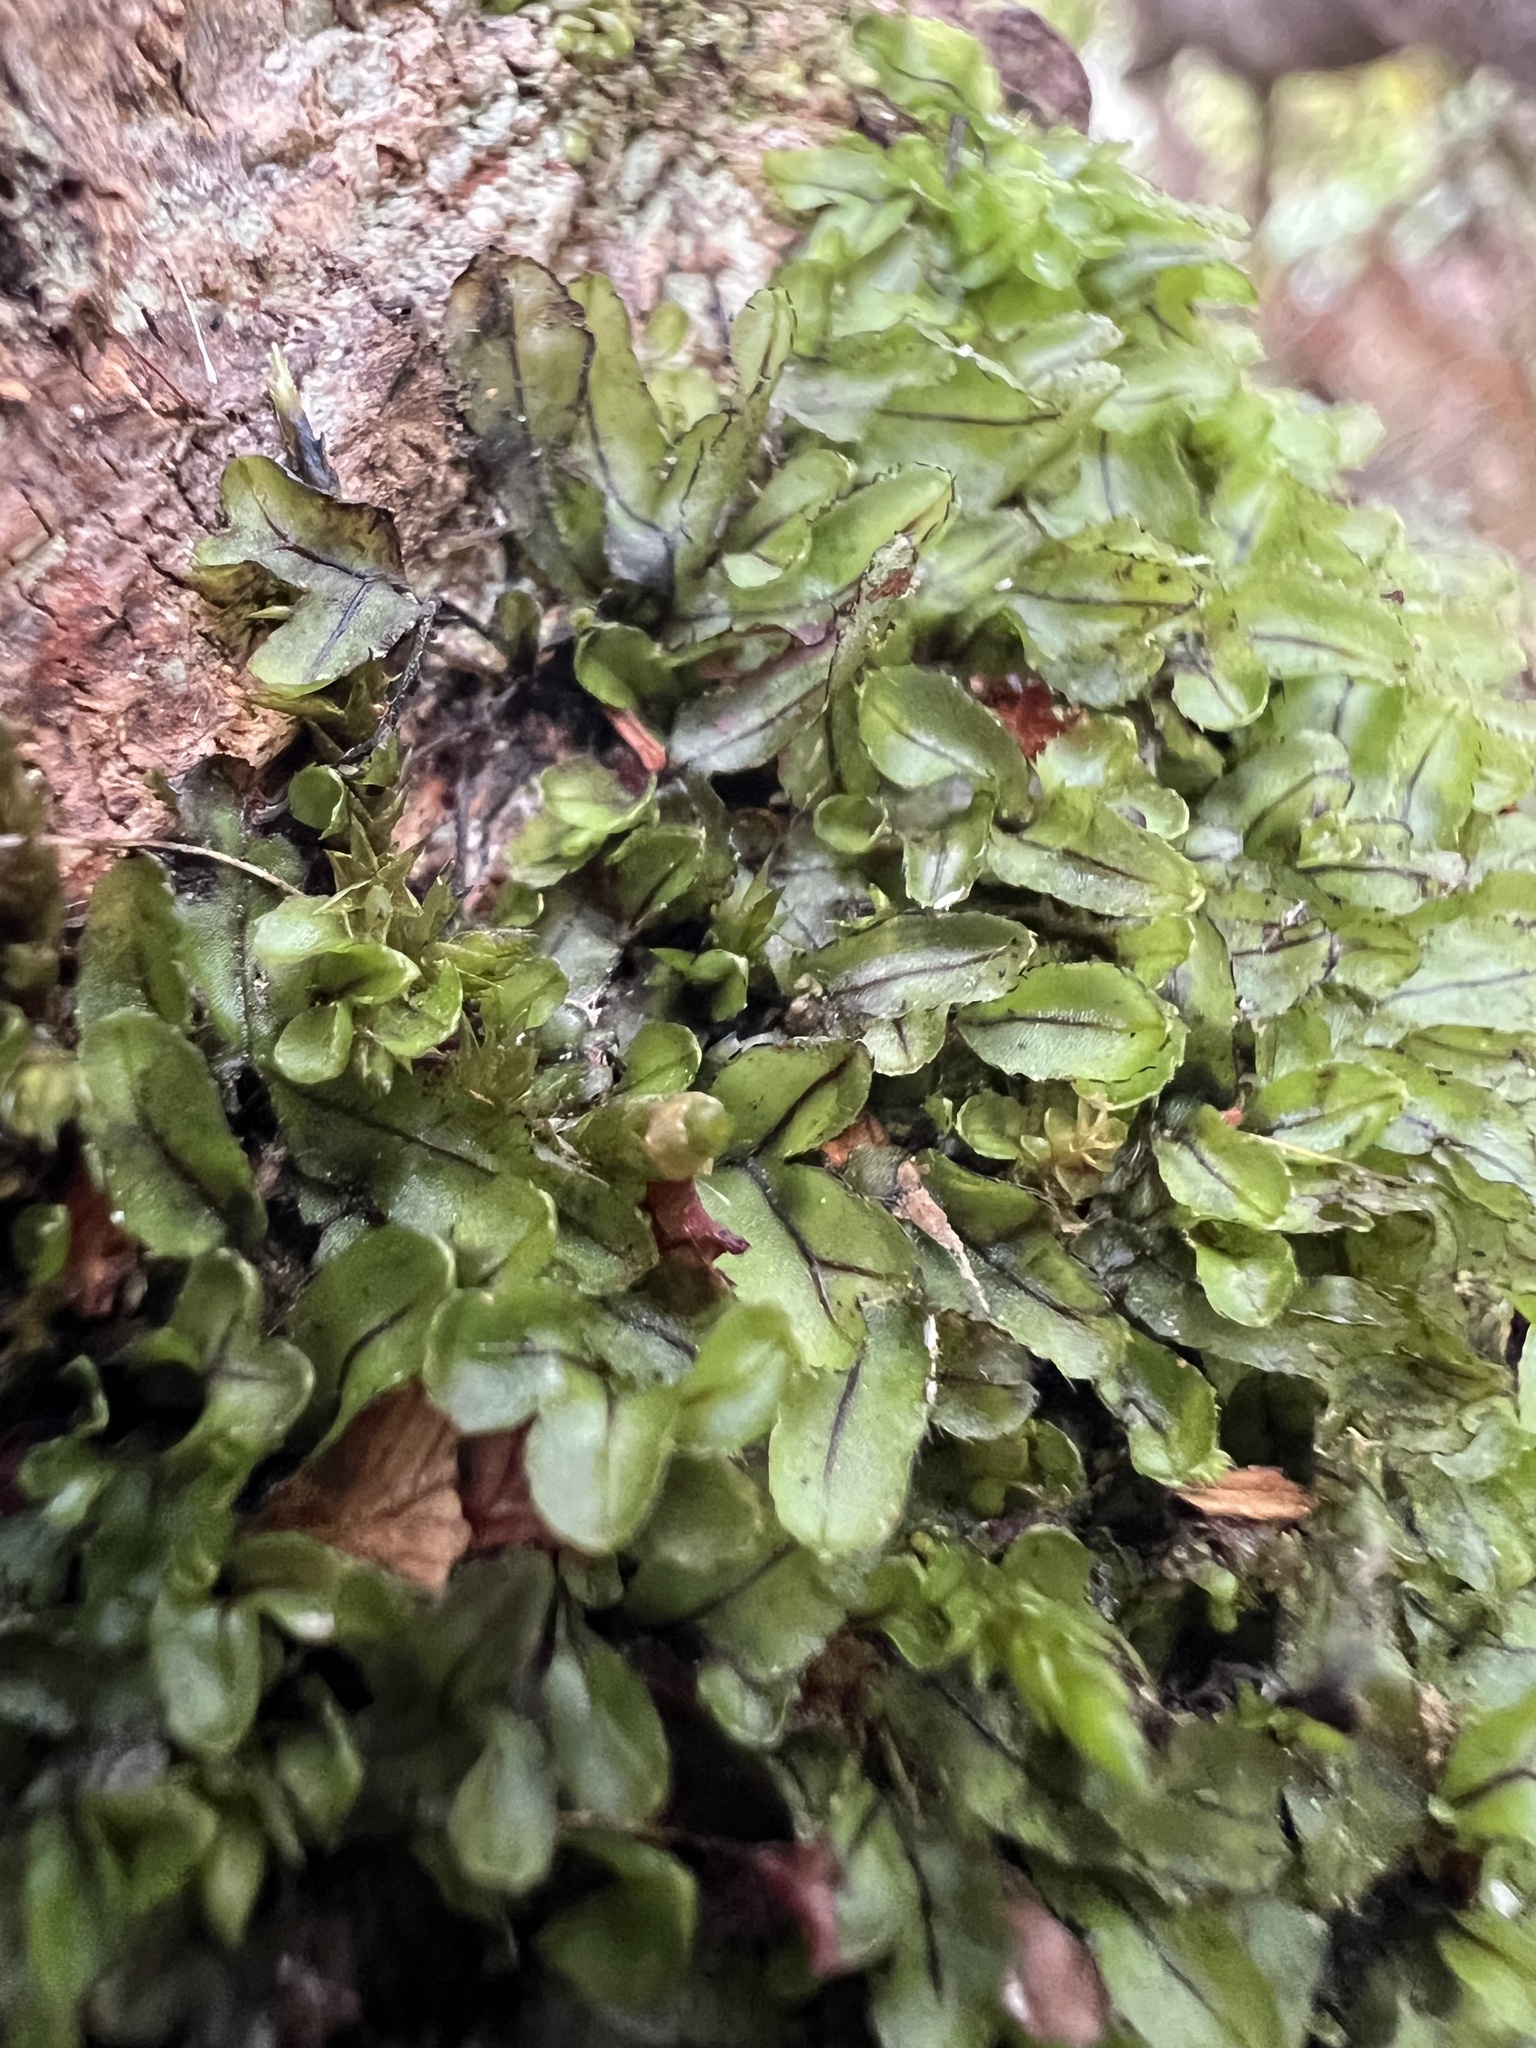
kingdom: Plantae
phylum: Tracheophyta
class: Polypodiopsida
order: Hymenophyllales
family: Hymenophyllaceae
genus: Hymenophyllum
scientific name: Hymenophyllum armstrongii
